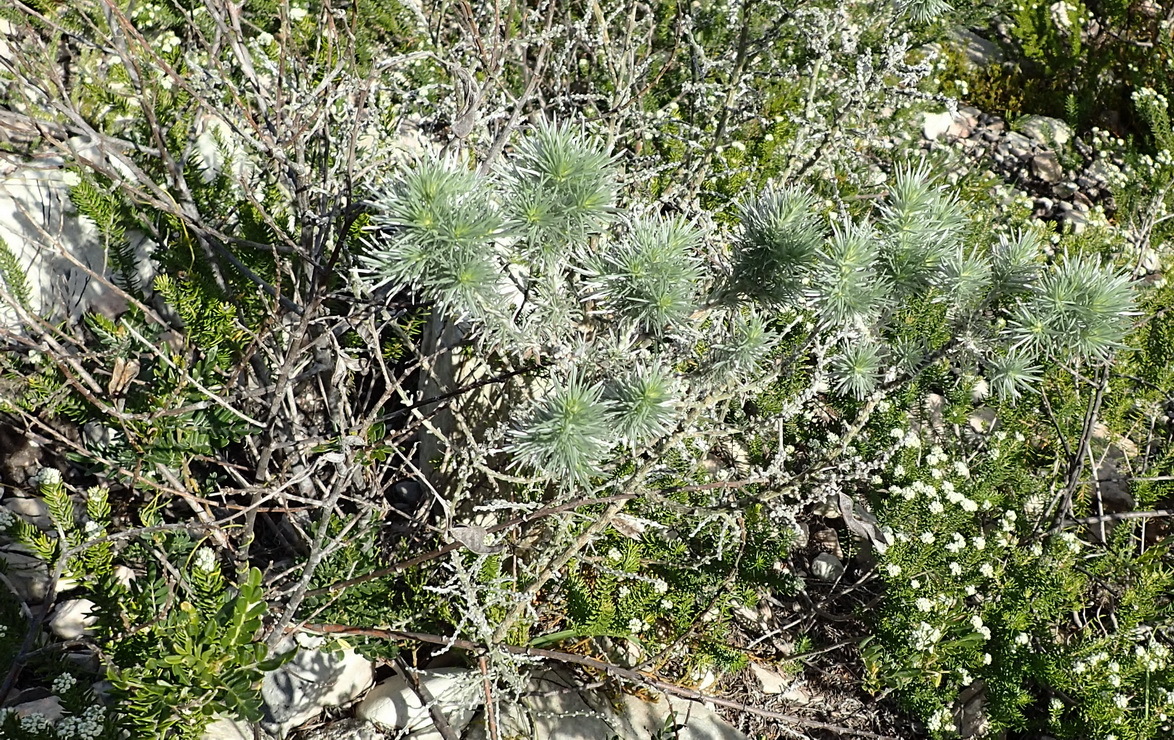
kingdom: Plantae
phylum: Tracheophyta
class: Magnoliopsida
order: Fabales
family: Fabaceae
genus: Aspalathus
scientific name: Aspalathus florifera
